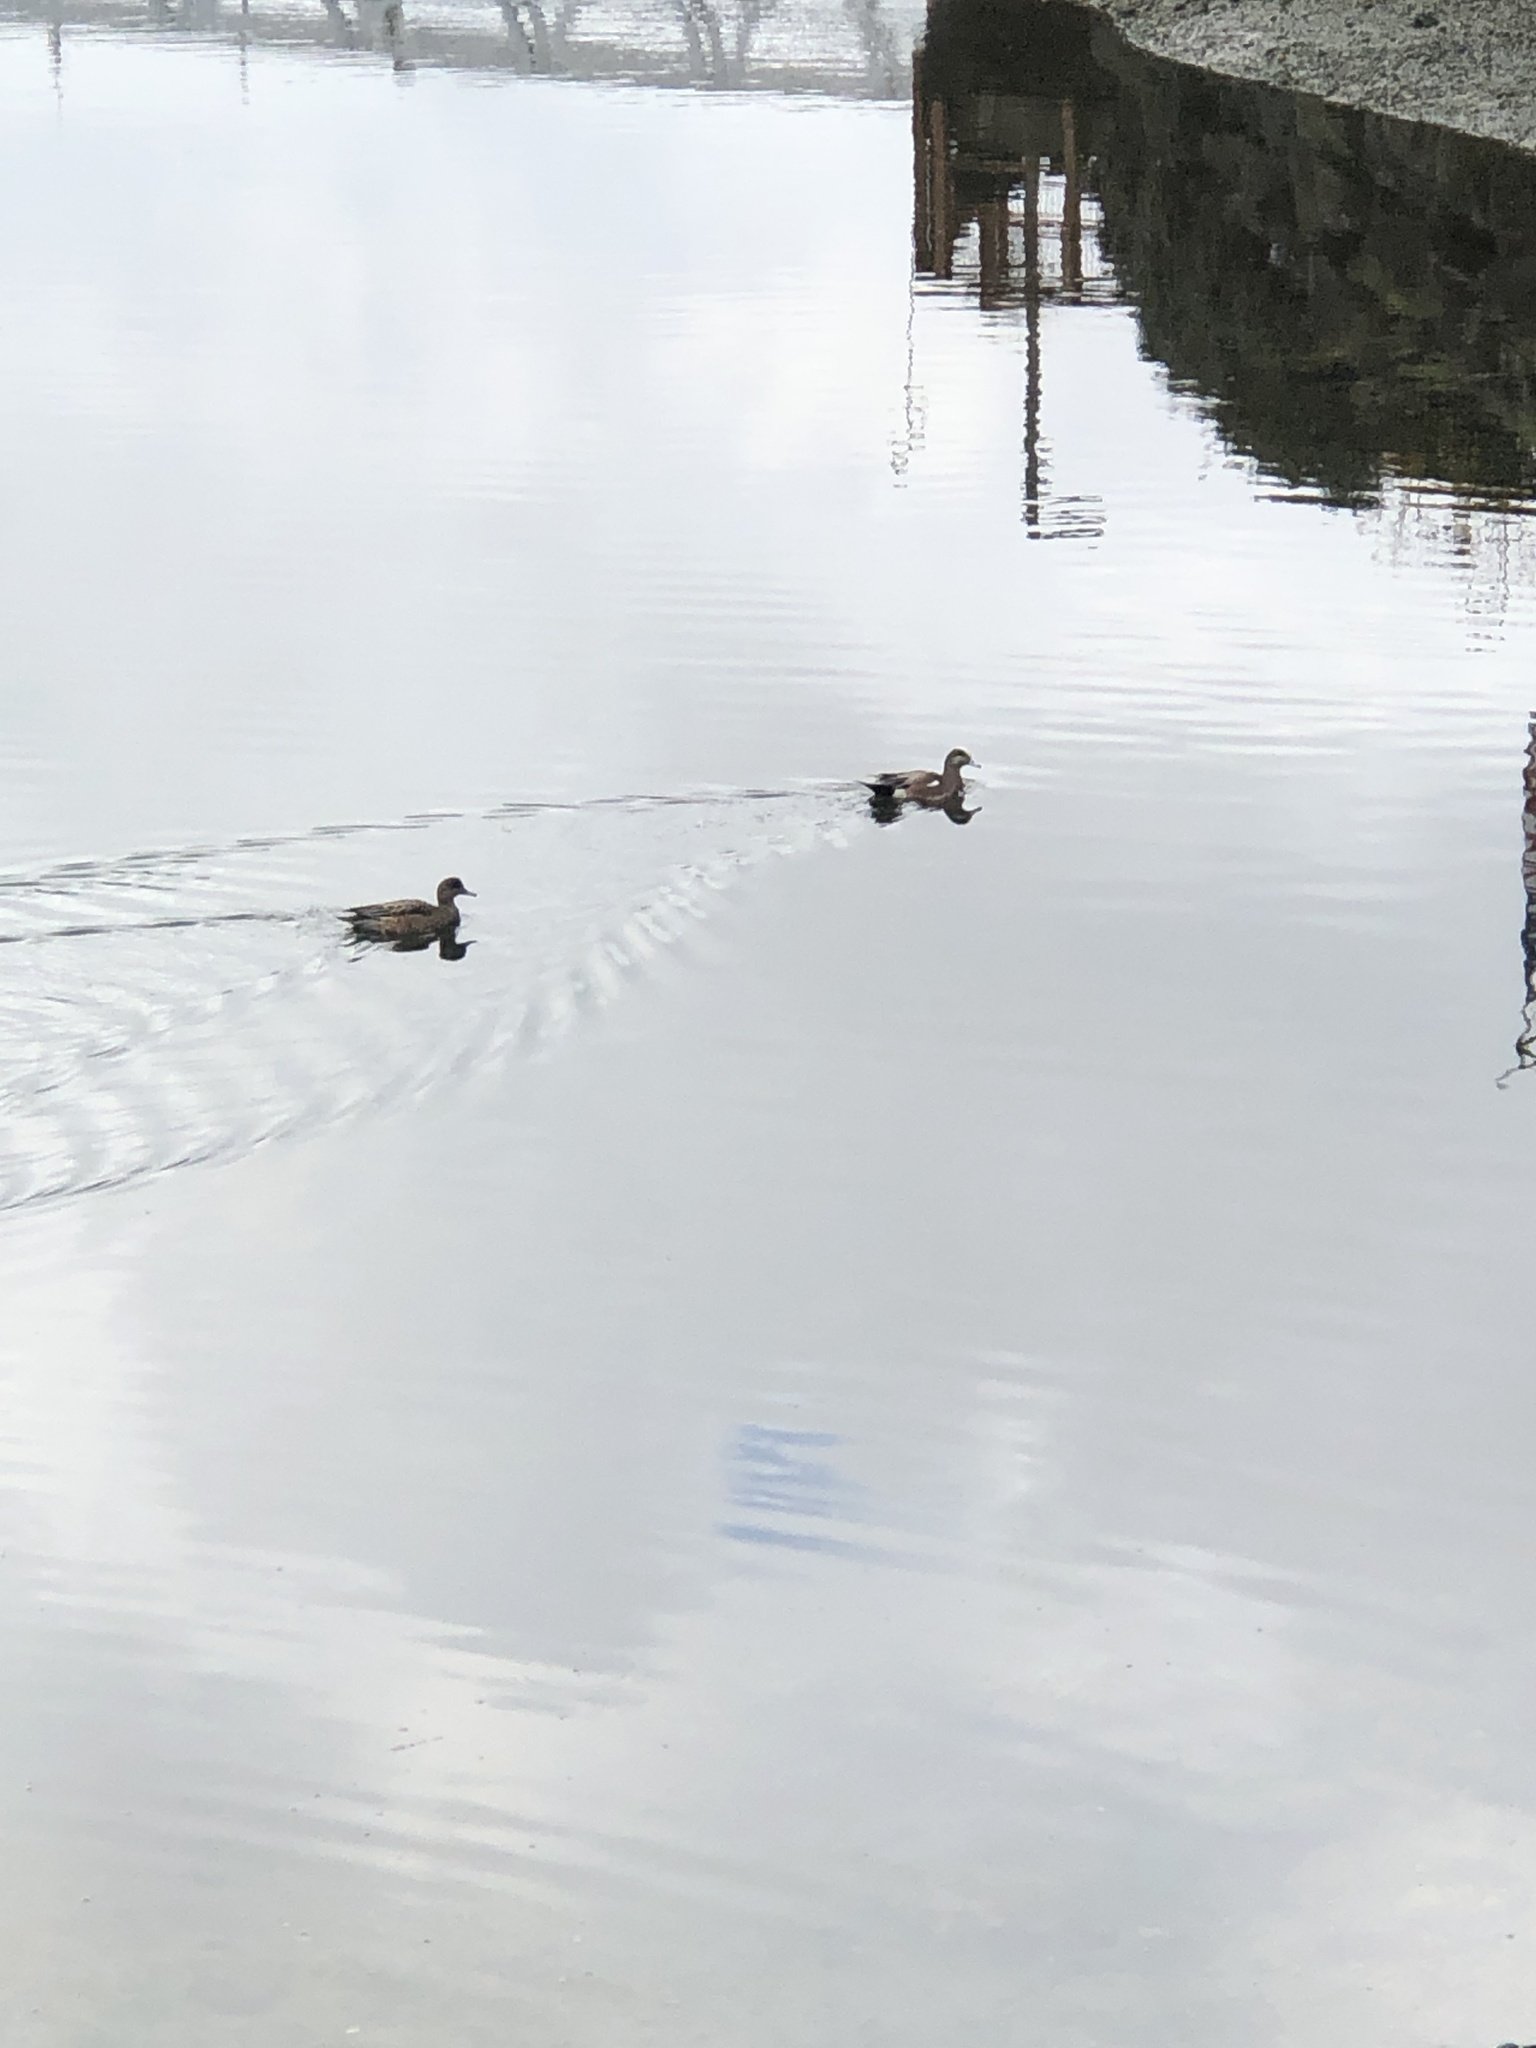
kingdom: Animalia
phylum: Chordata
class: Aves
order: Anseriformes
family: Anatidae
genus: Mareca
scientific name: Mareca americana
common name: American wigeon
